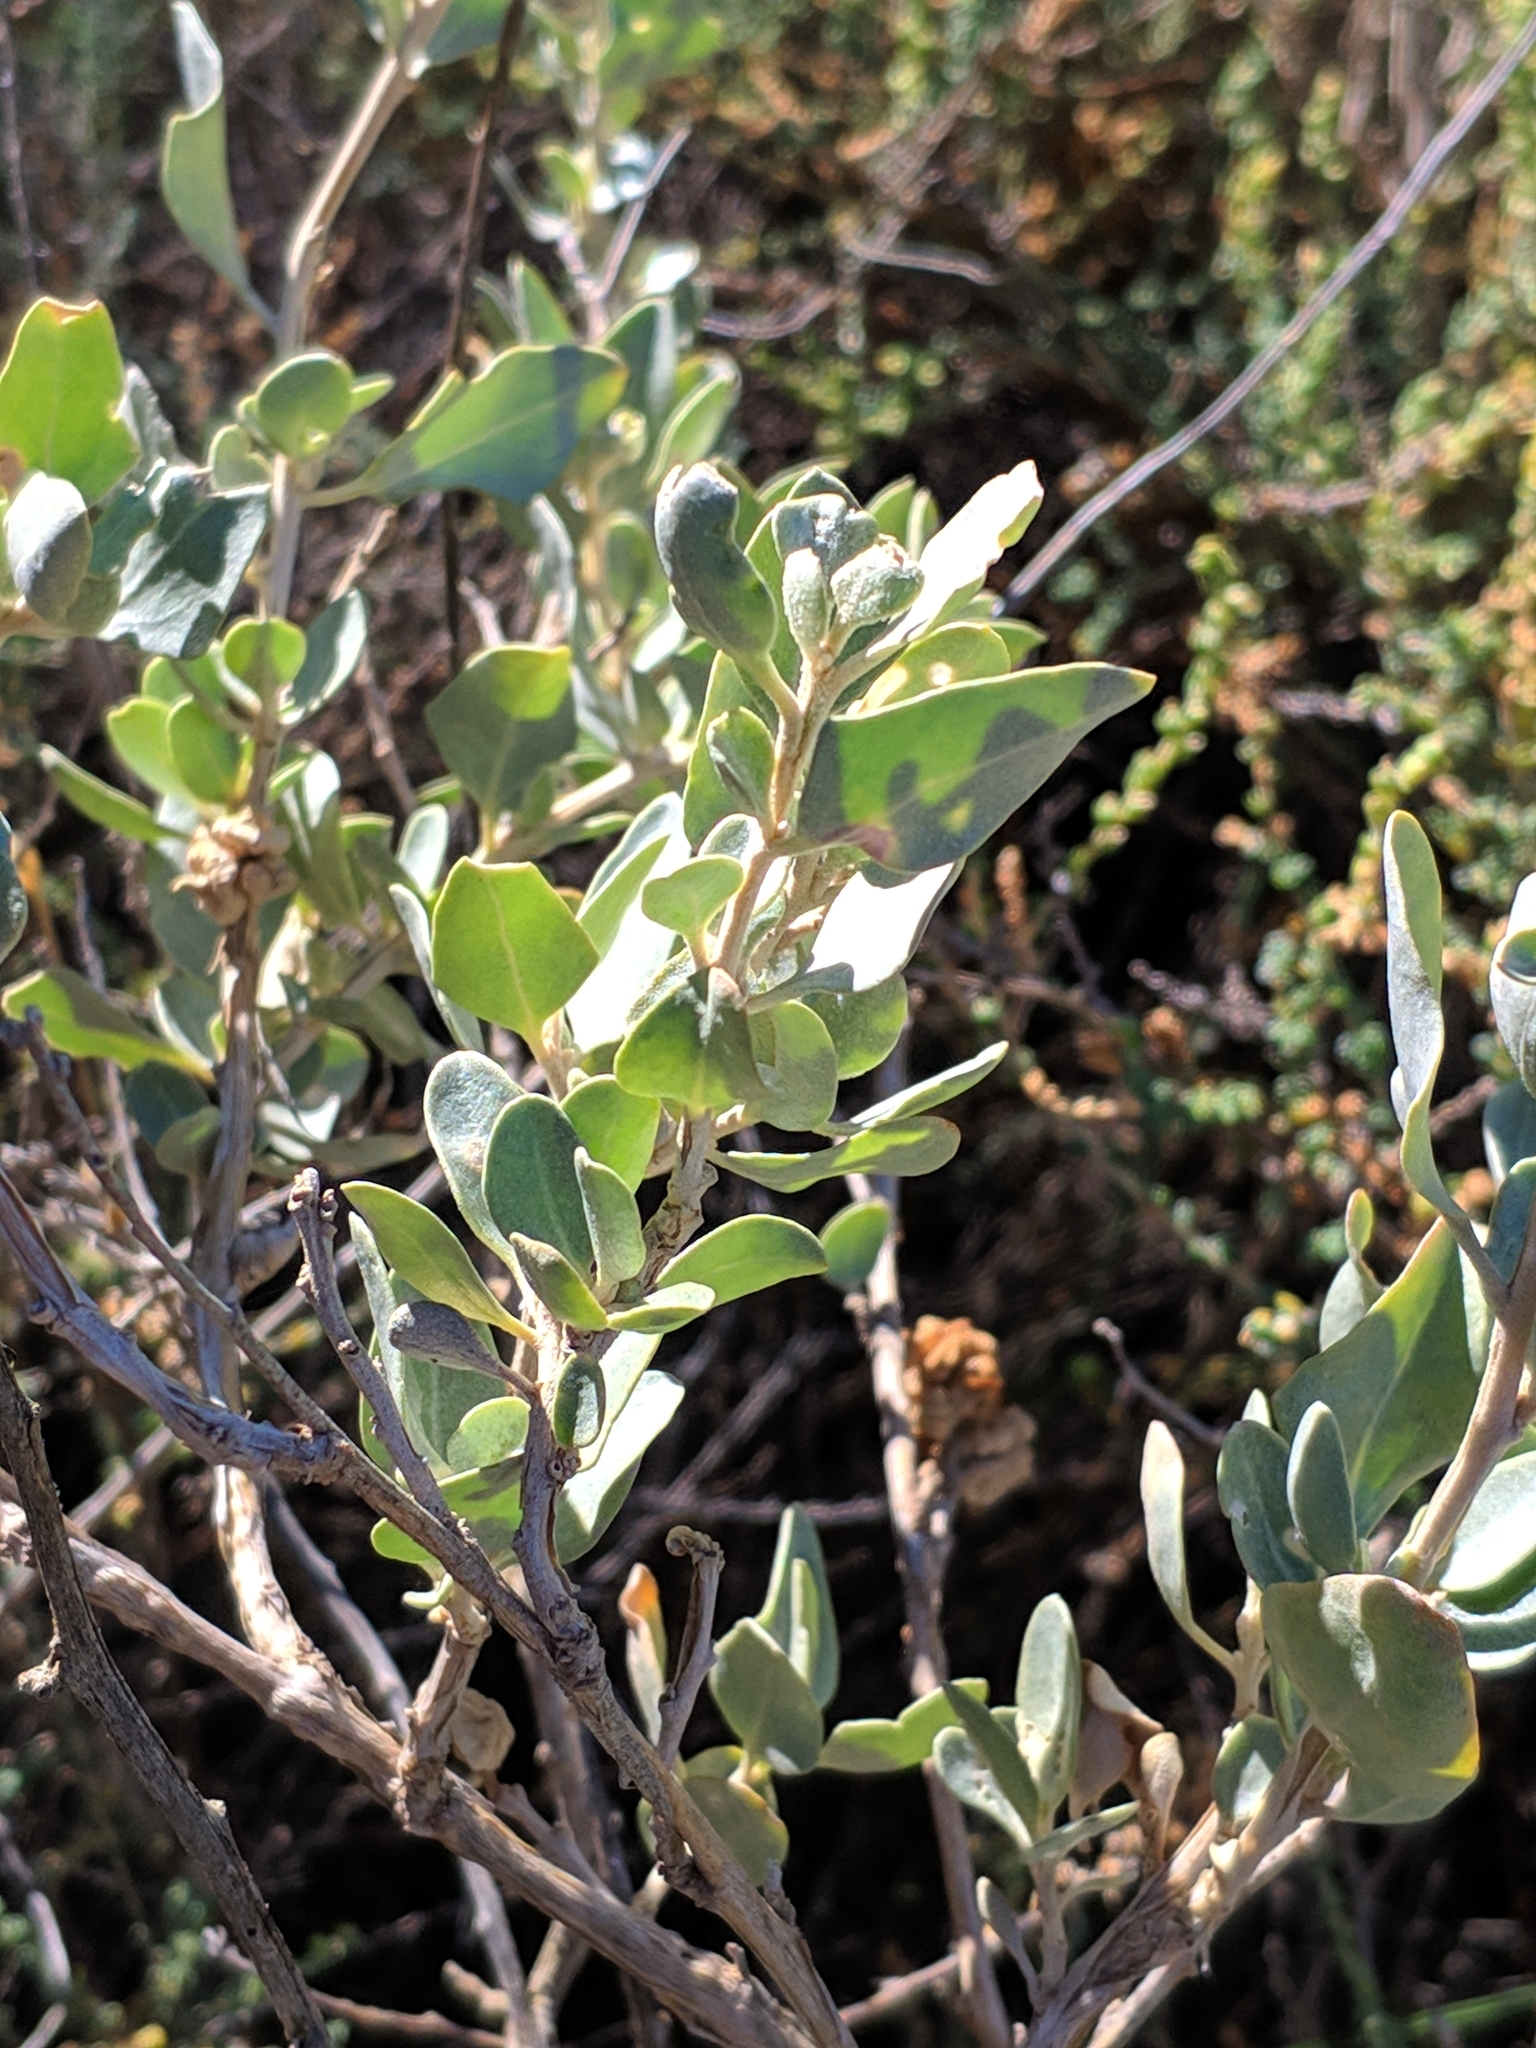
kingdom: Plantae
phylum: Tracheophyta
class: Magnoliopsida
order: Caryophyllales
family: Amaranthaceae
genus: Atriplex
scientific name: Atriplex halimus
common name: Shrubby orache
